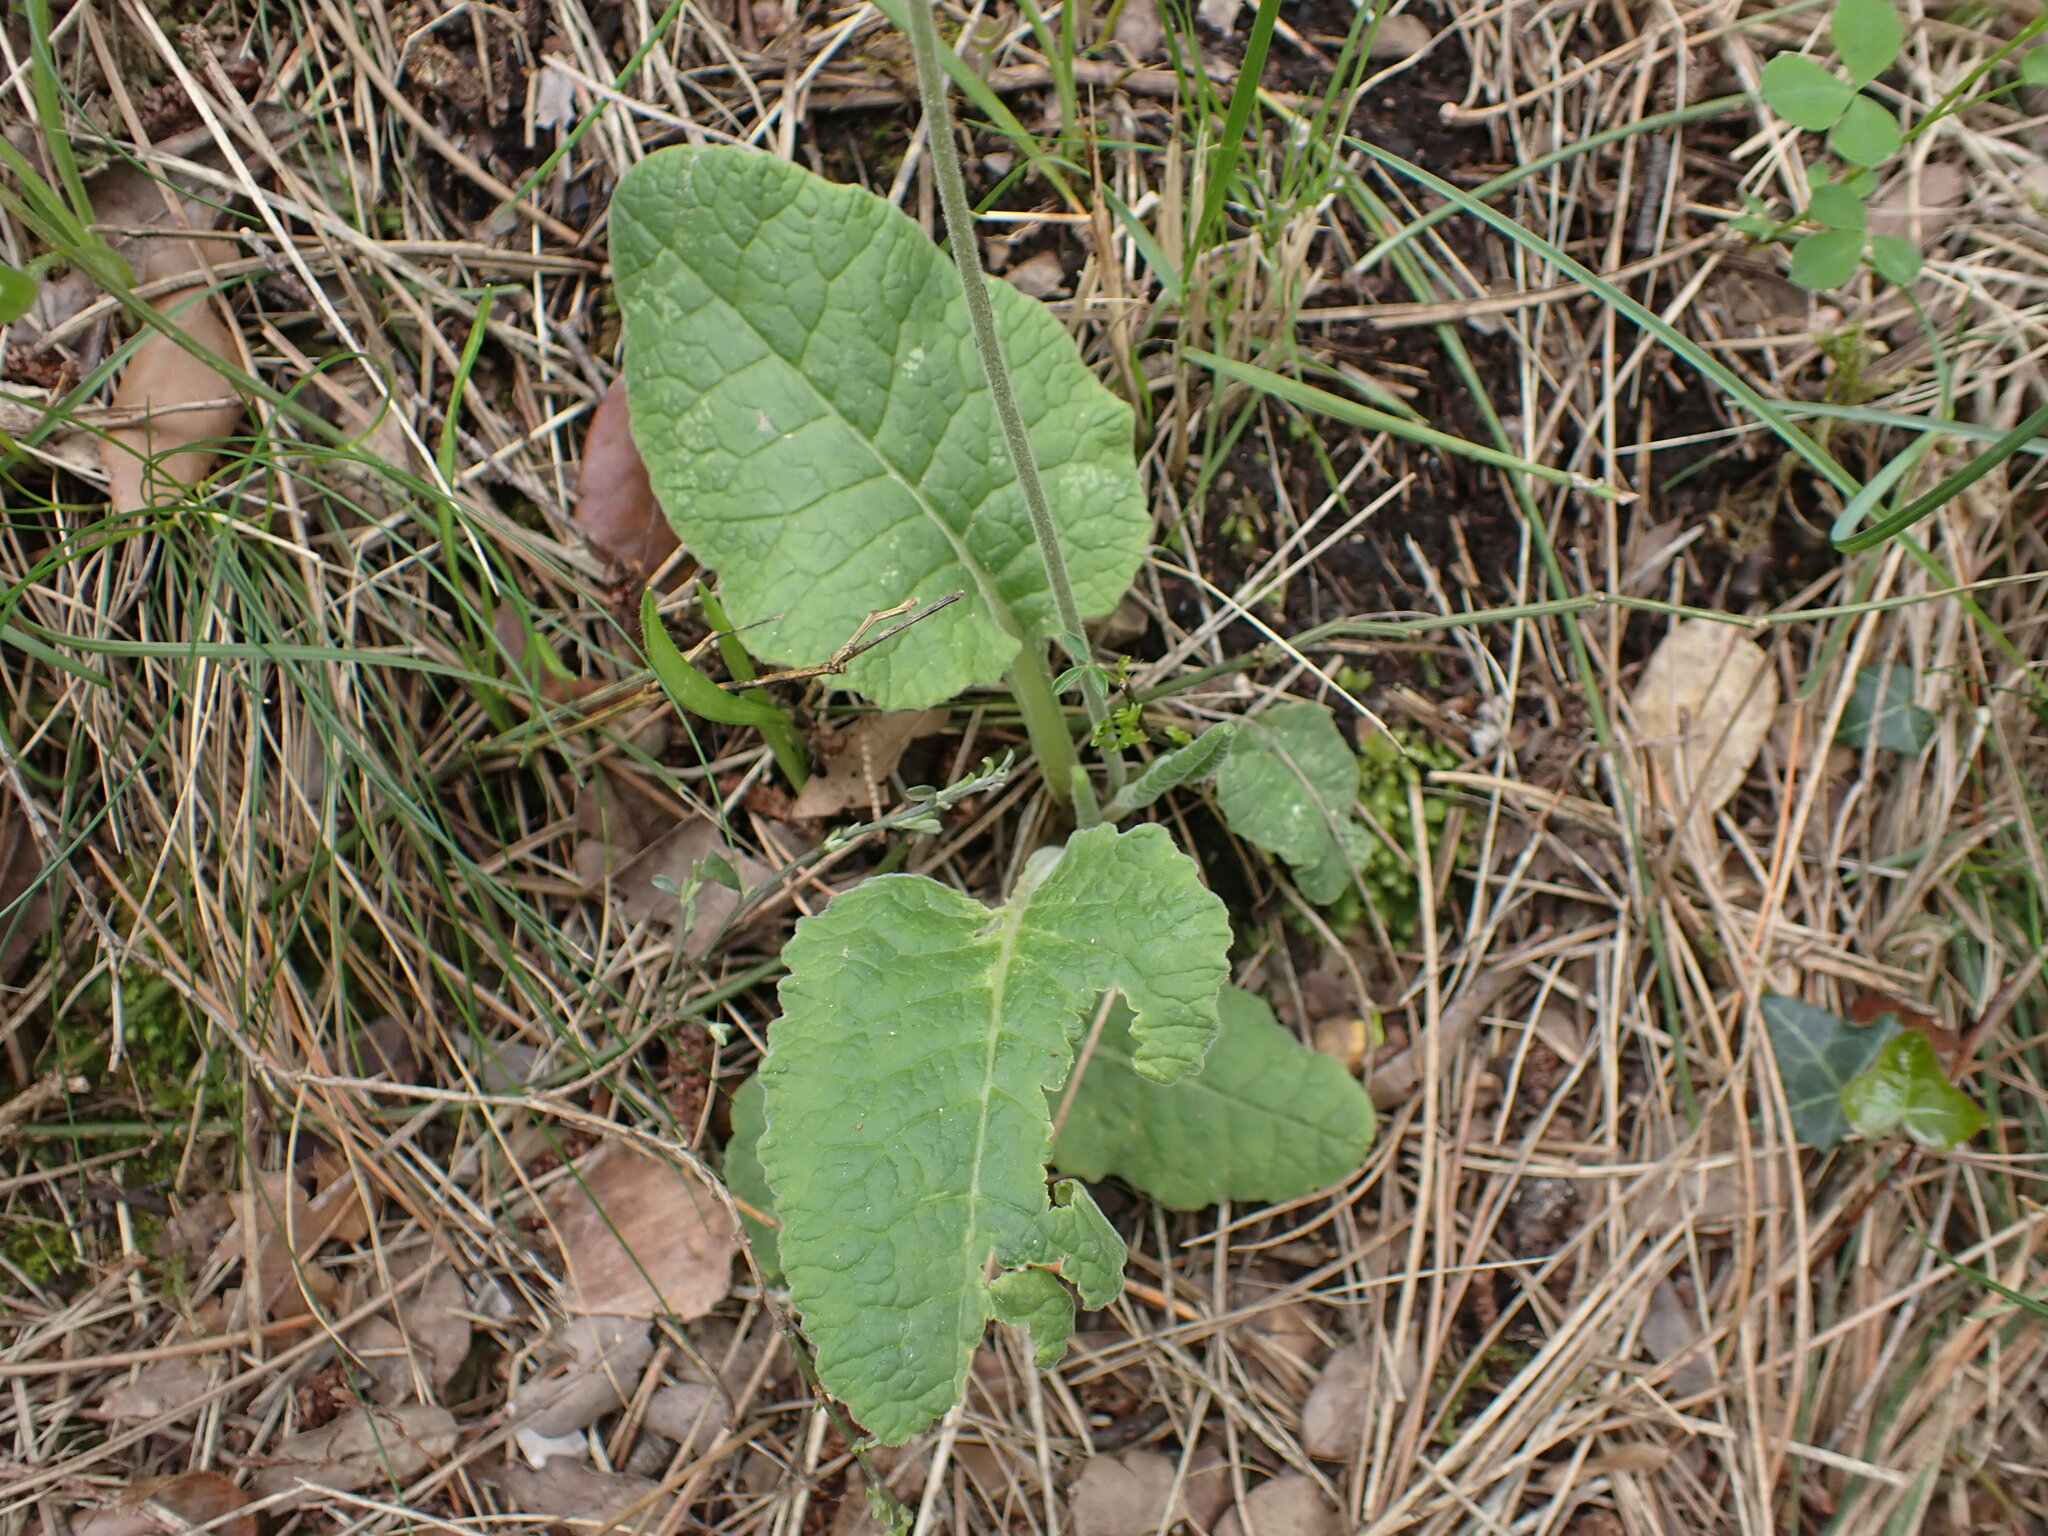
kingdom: Plantae
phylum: Tracheophyta
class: Magnoliopsida
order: Ericales
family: Primulaceae
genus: Primula
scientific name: Primula veris
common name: Cowslip
